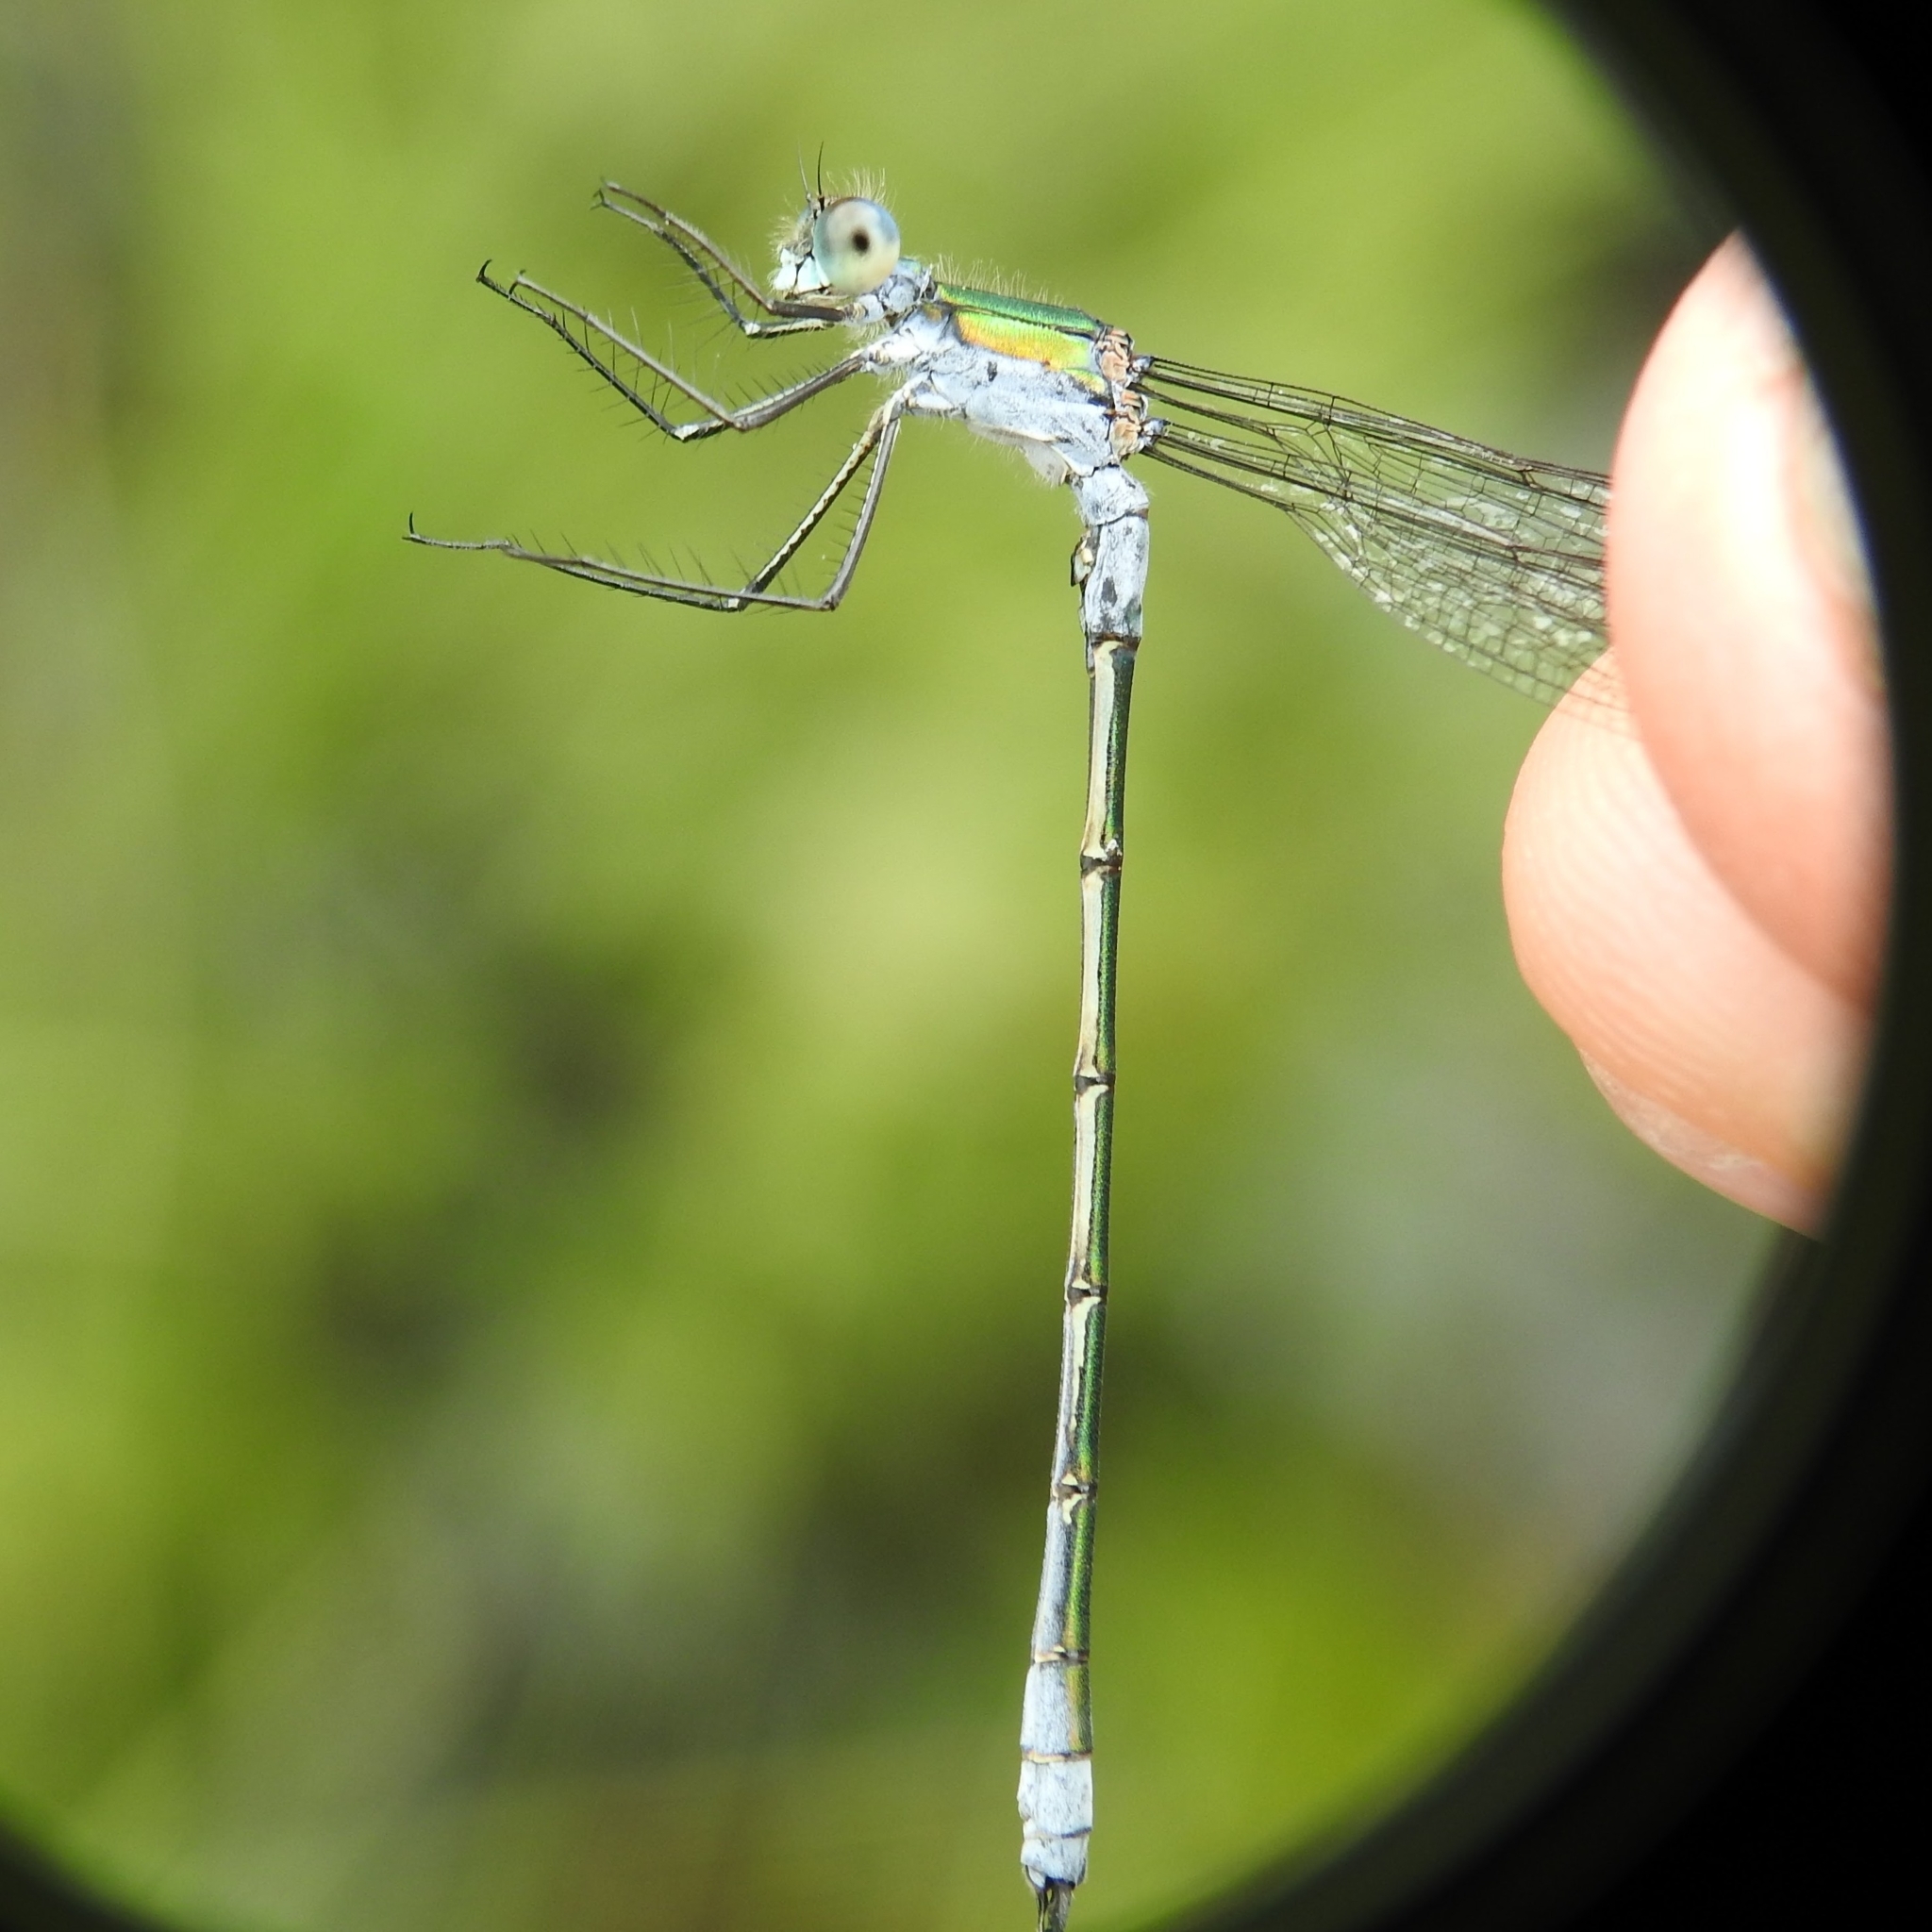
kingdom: Animalia
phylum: Arthropoda
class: Insecta
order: Odonata
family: Lestidae
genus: Lestes
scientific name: Lestes sponsa
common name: Common spreadwing
